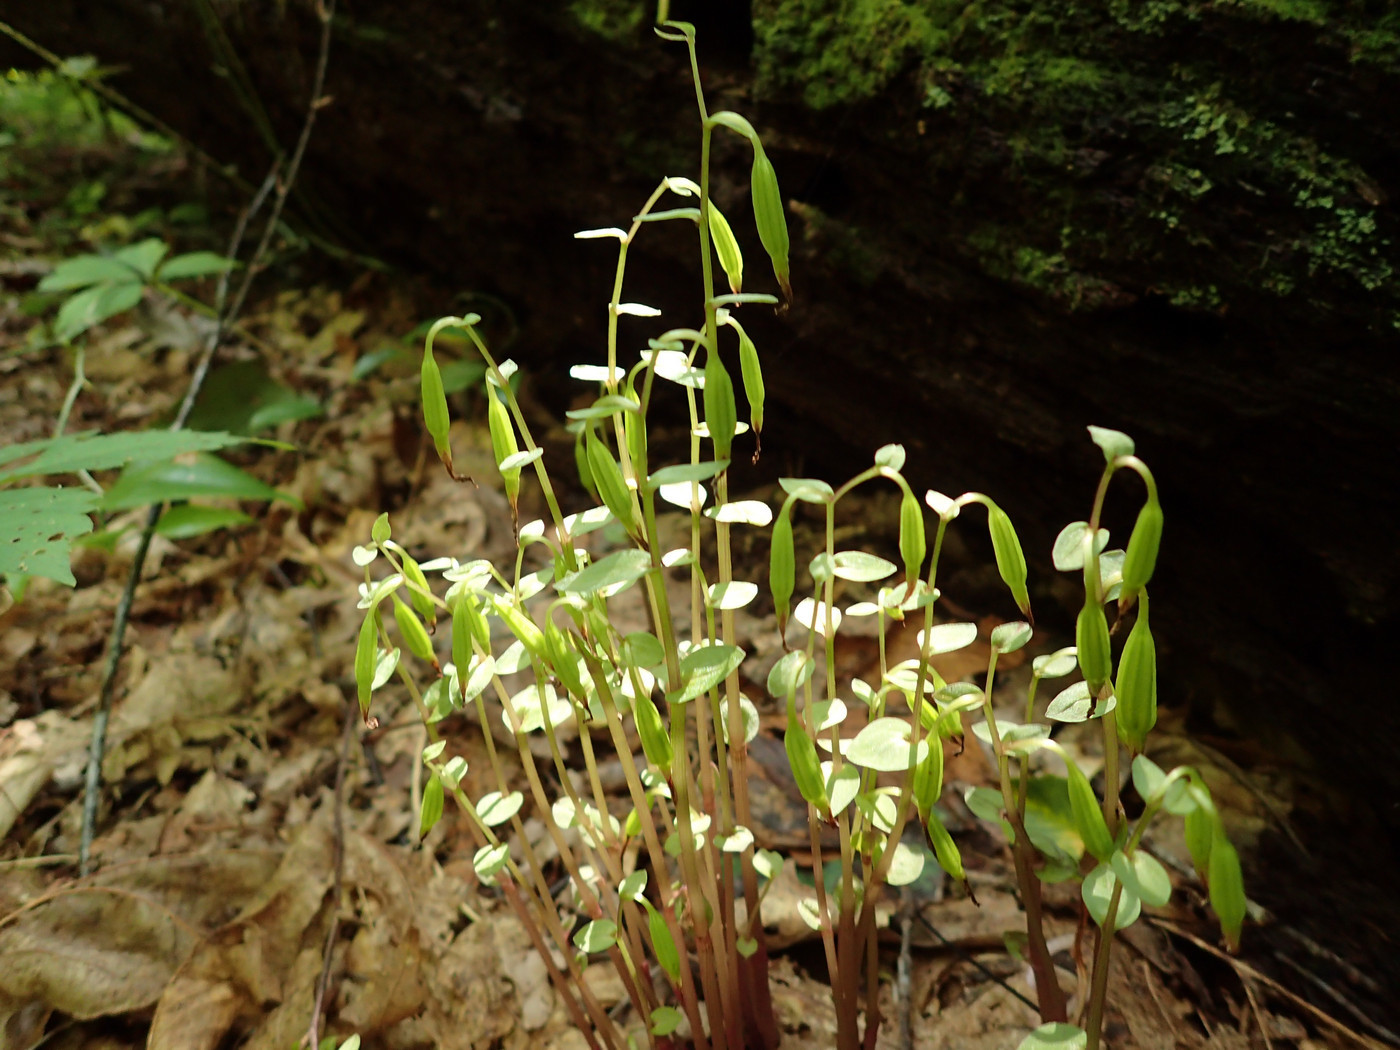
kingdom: Plantae
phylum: Tracheophyta
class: Liliopsida
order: Asparagales
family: Orchidaceae
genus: Triphora
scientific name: Triphora trianthophoros
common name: Three birds orchid
